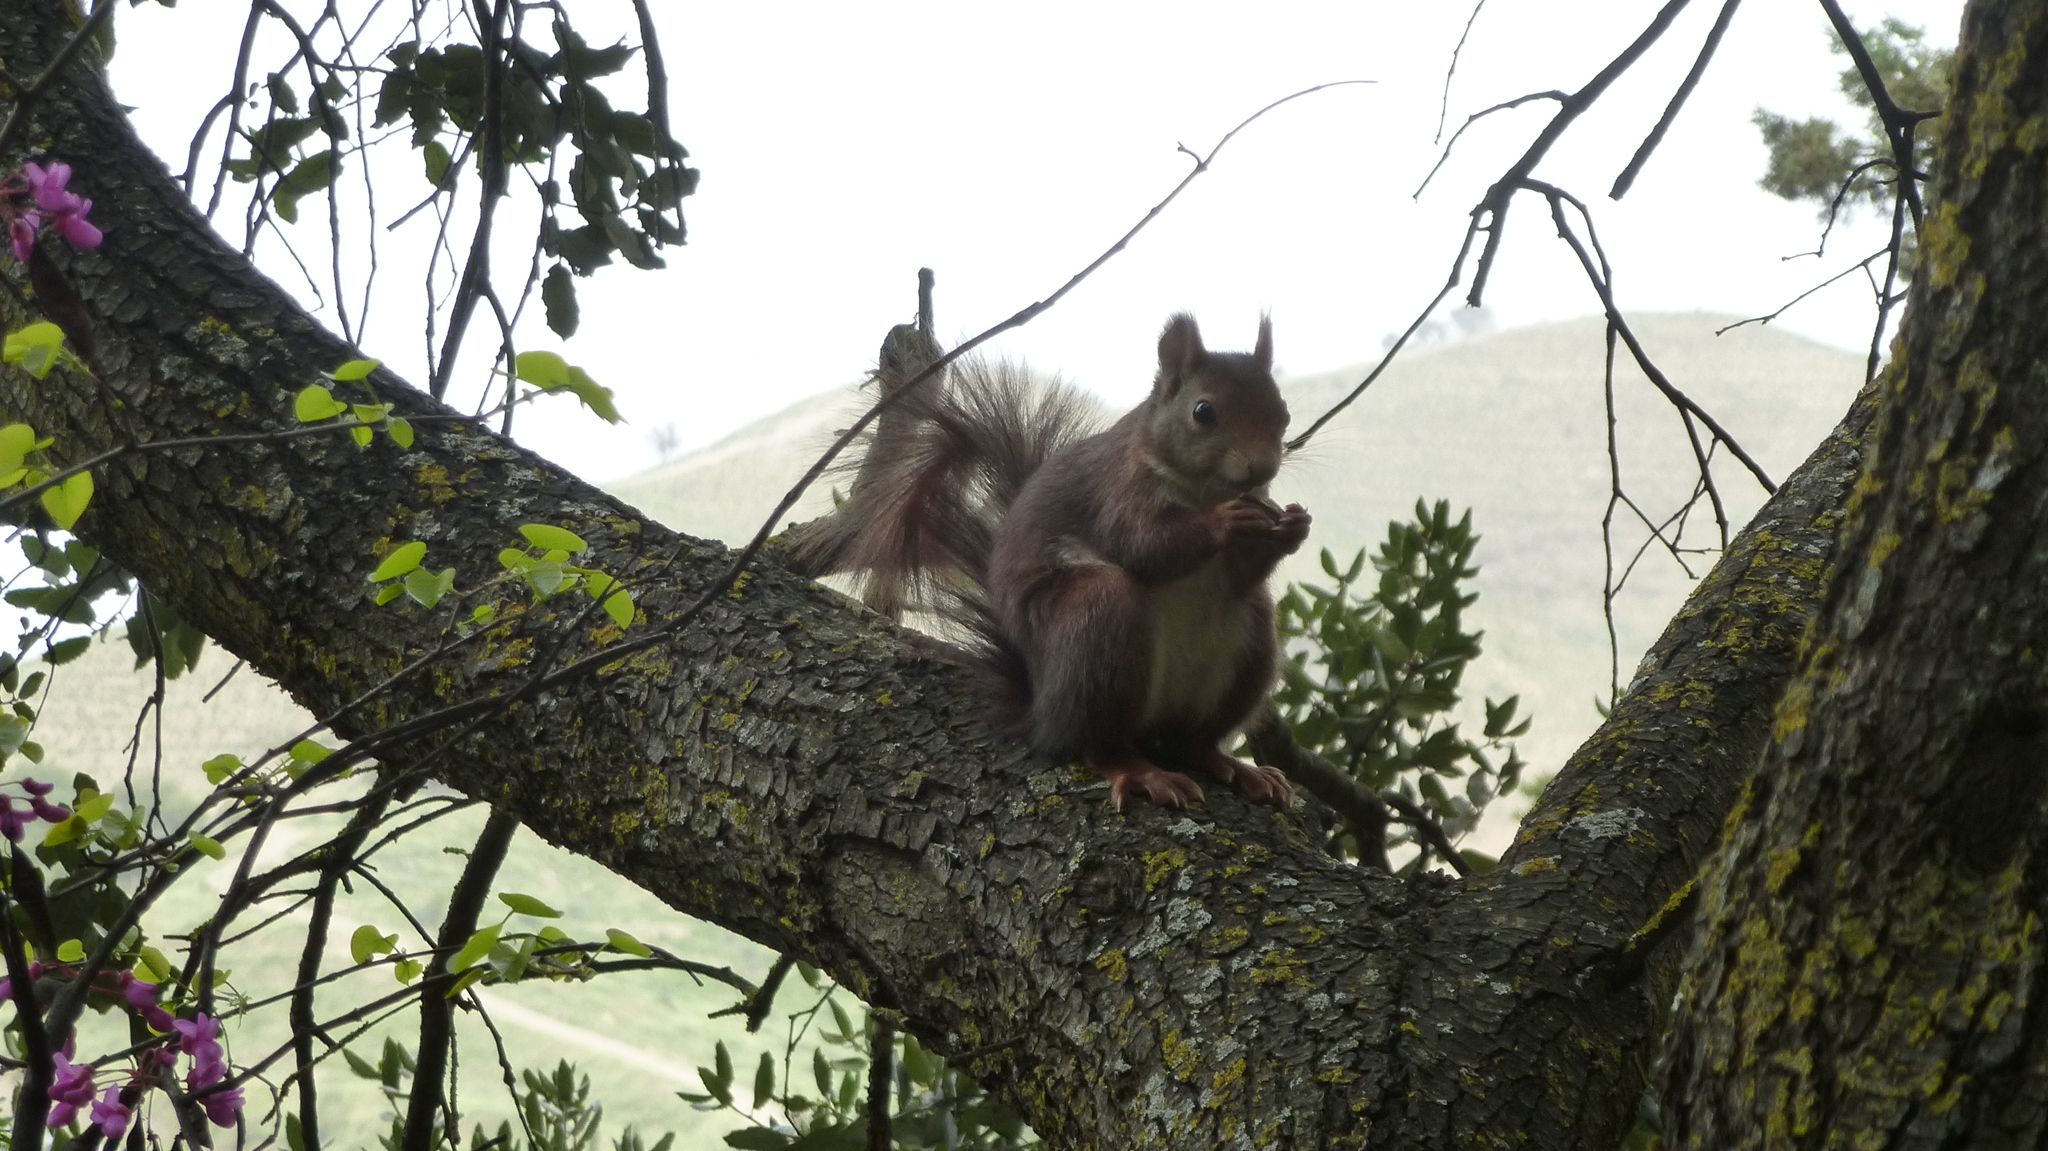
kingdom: Animalia
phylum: Chordata
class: Mammalia
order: Rodentia
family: Sciuridae
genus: Sciurus
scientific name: Sciurus vulgaris
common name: Eurasian red squirrel
